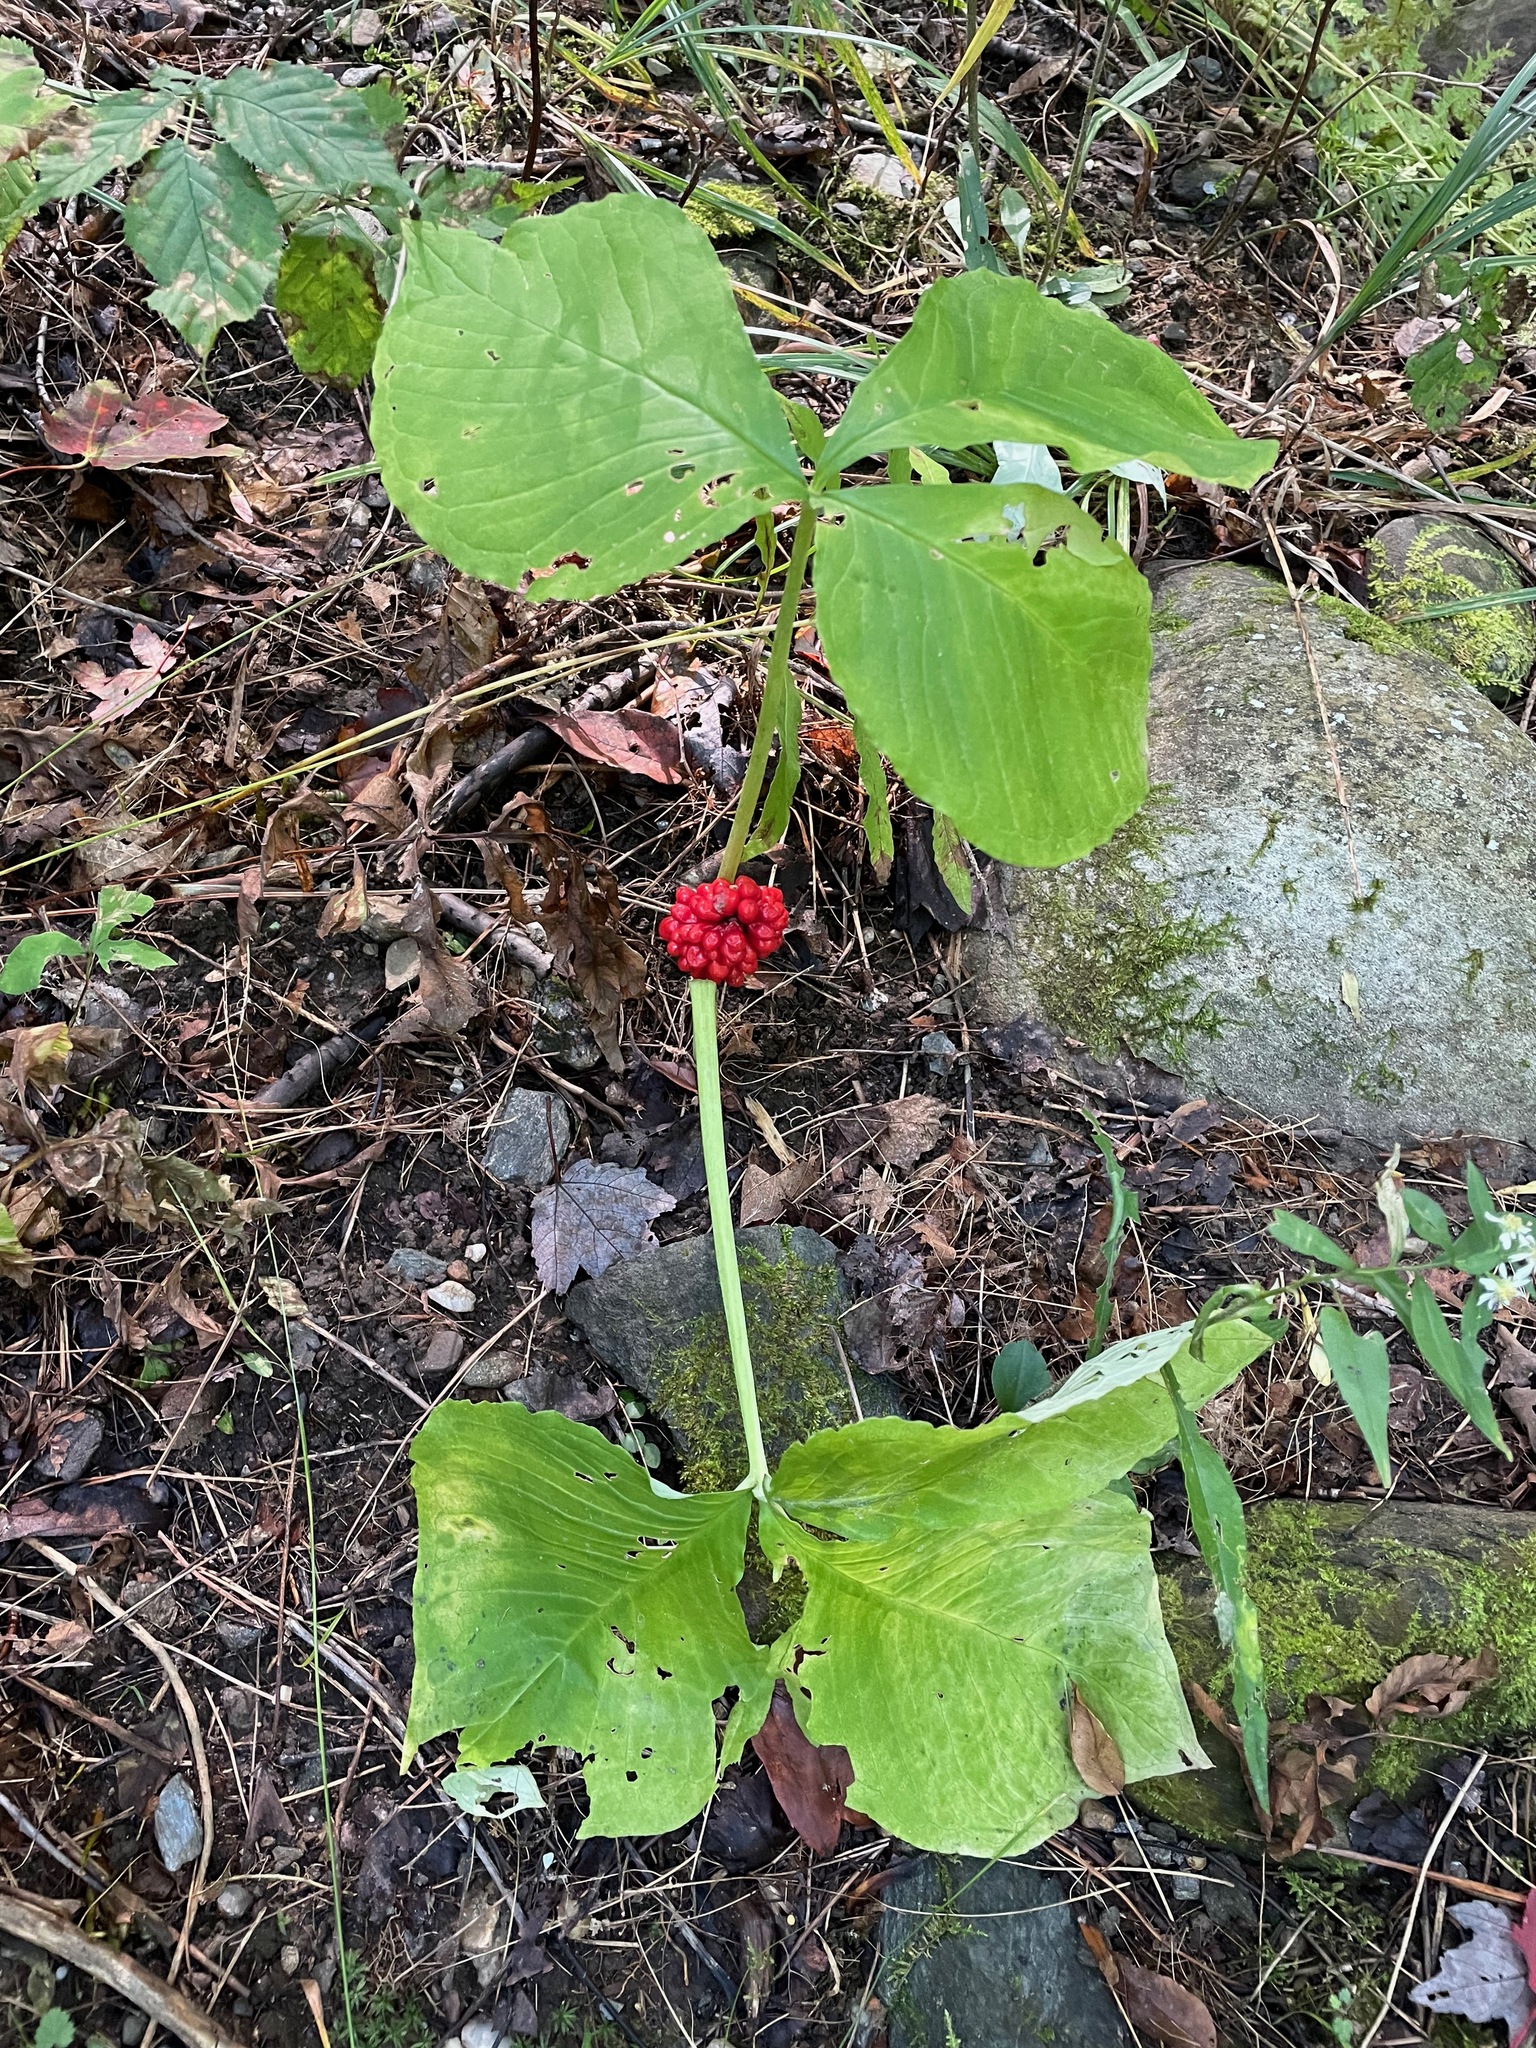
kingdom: Plantae
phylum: Tracheophyta
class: Liliopsida
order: Alismatales
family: Araceae
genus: Arisaema
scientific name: Arisaema triphyllum
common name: Jack-in-the-pulpit
